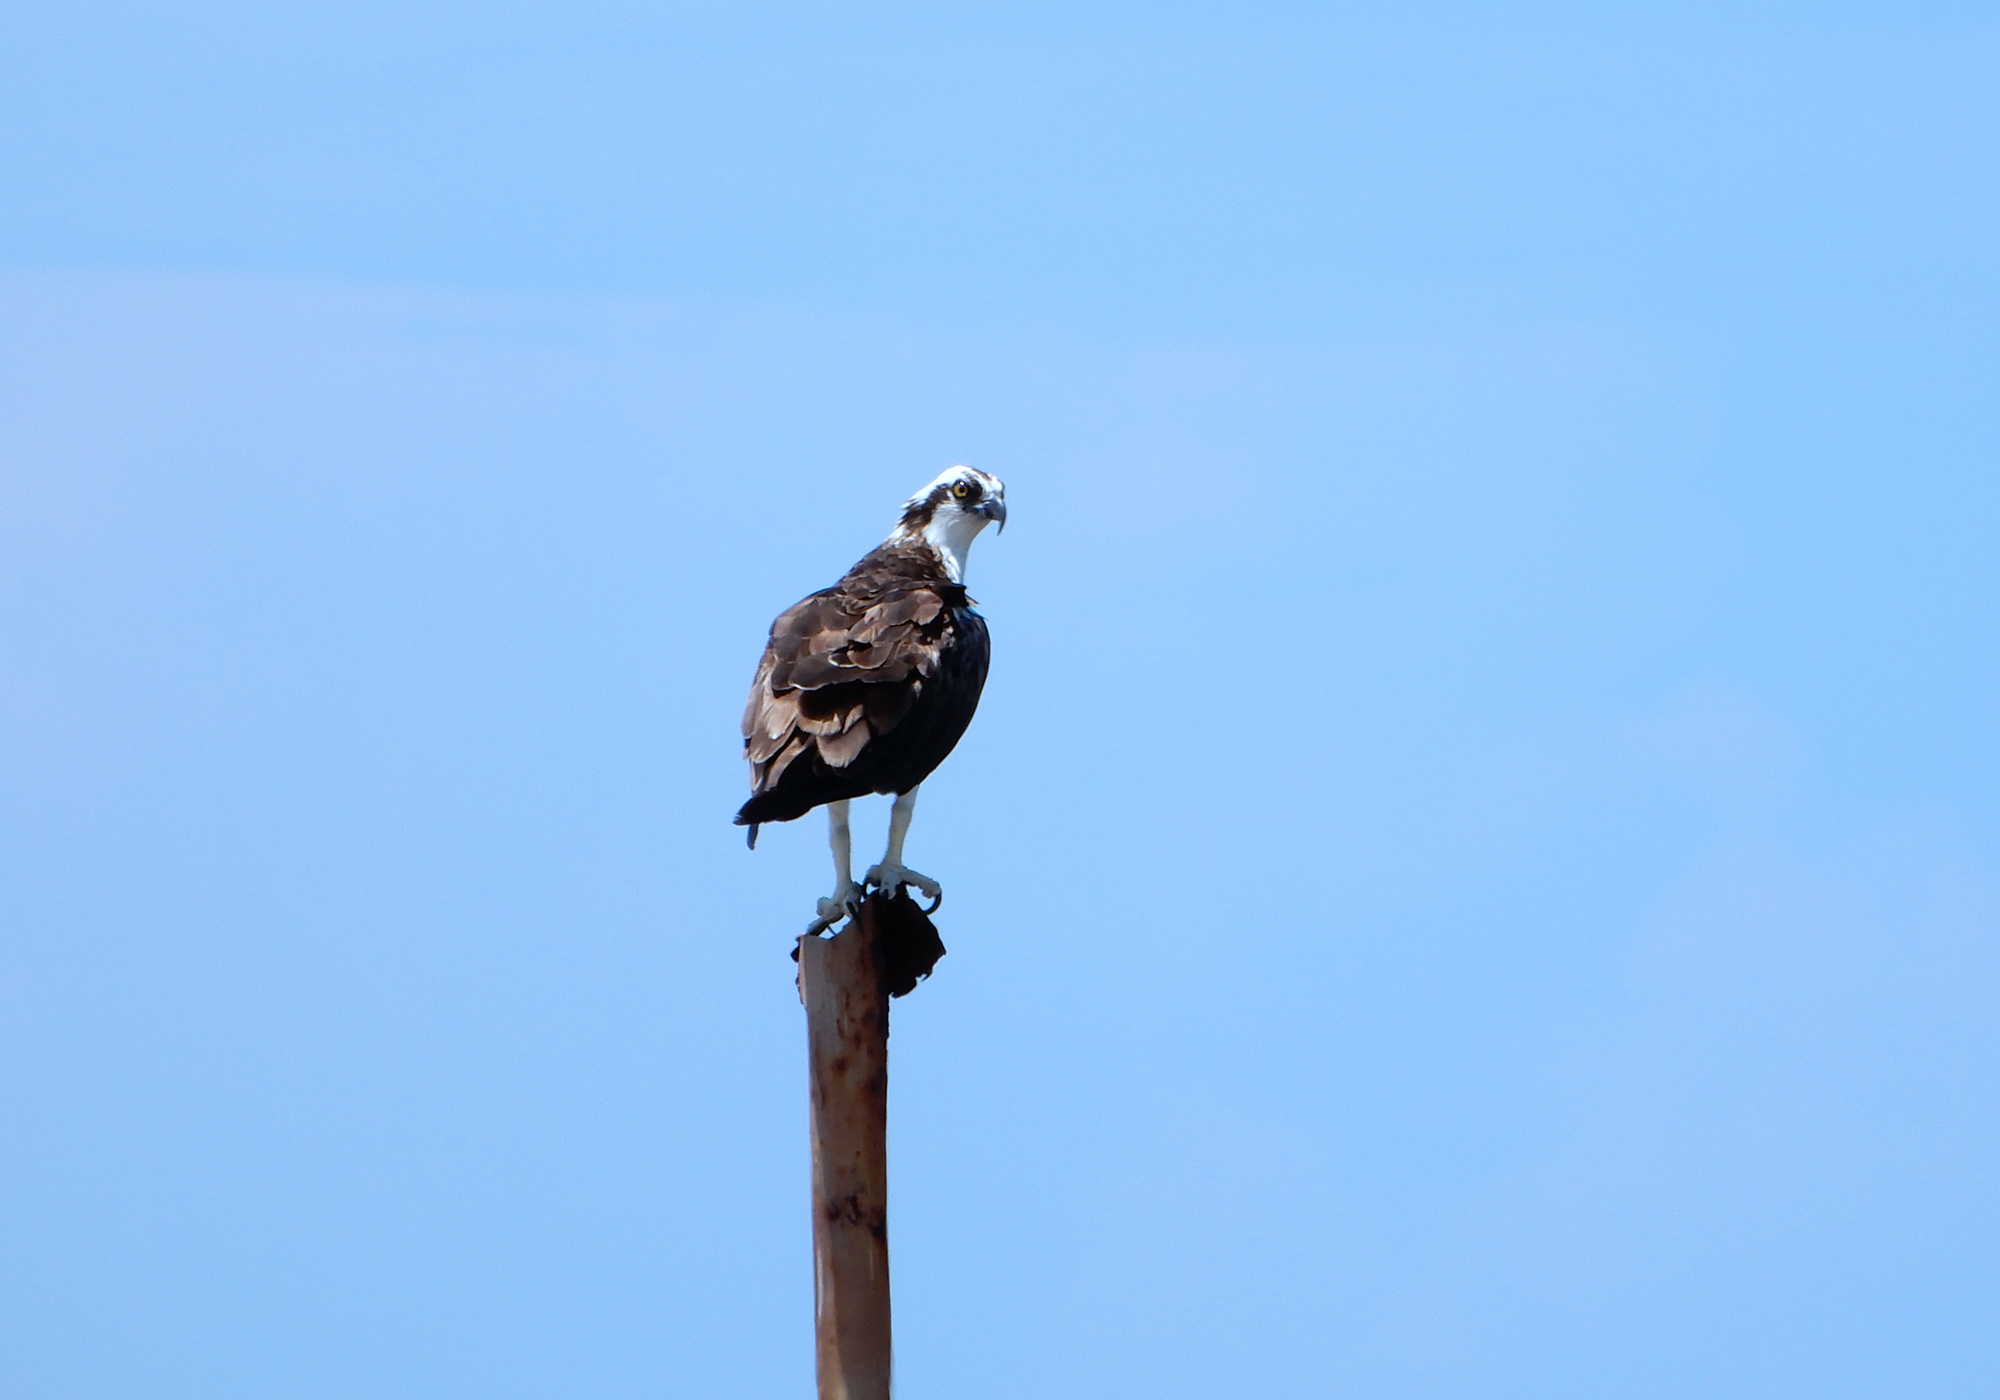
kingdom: Animalia
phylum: Chordata
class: Aves
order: Accipitriformes
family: Pandionidae
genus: Pandion
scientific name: Pandion haliaetus
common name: Osprey
